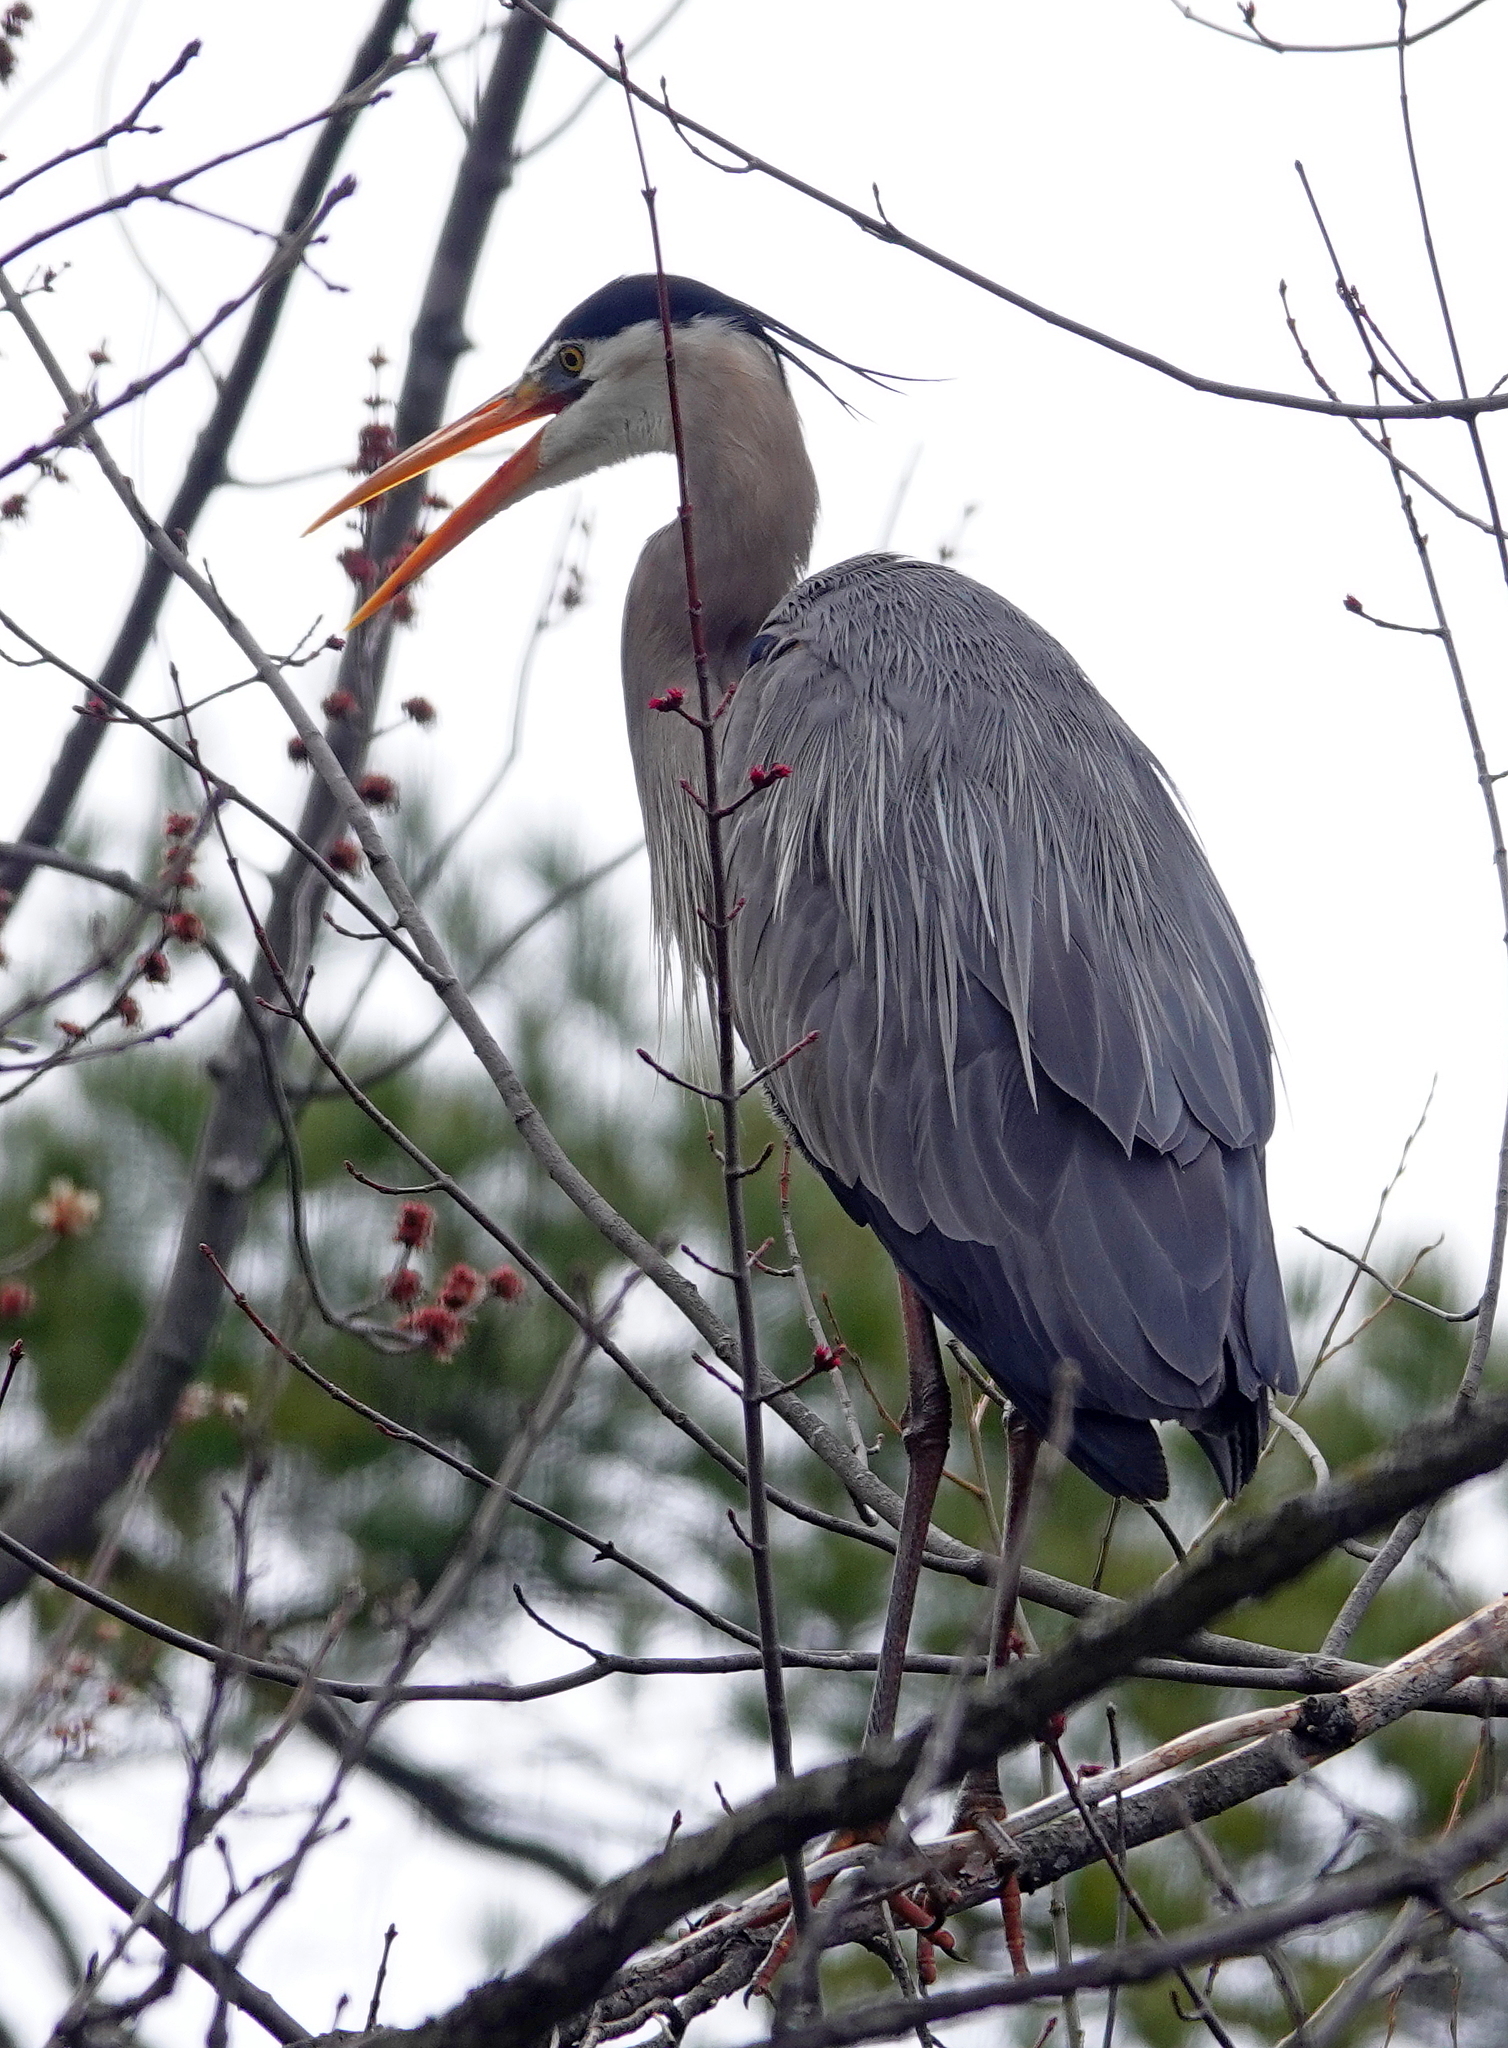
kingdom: Animalia
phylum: Chordata
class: Aves
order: Pelecaniformes
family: Ardeidae
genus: Ardea
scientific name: Ardea herodias
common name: Great blue heron
